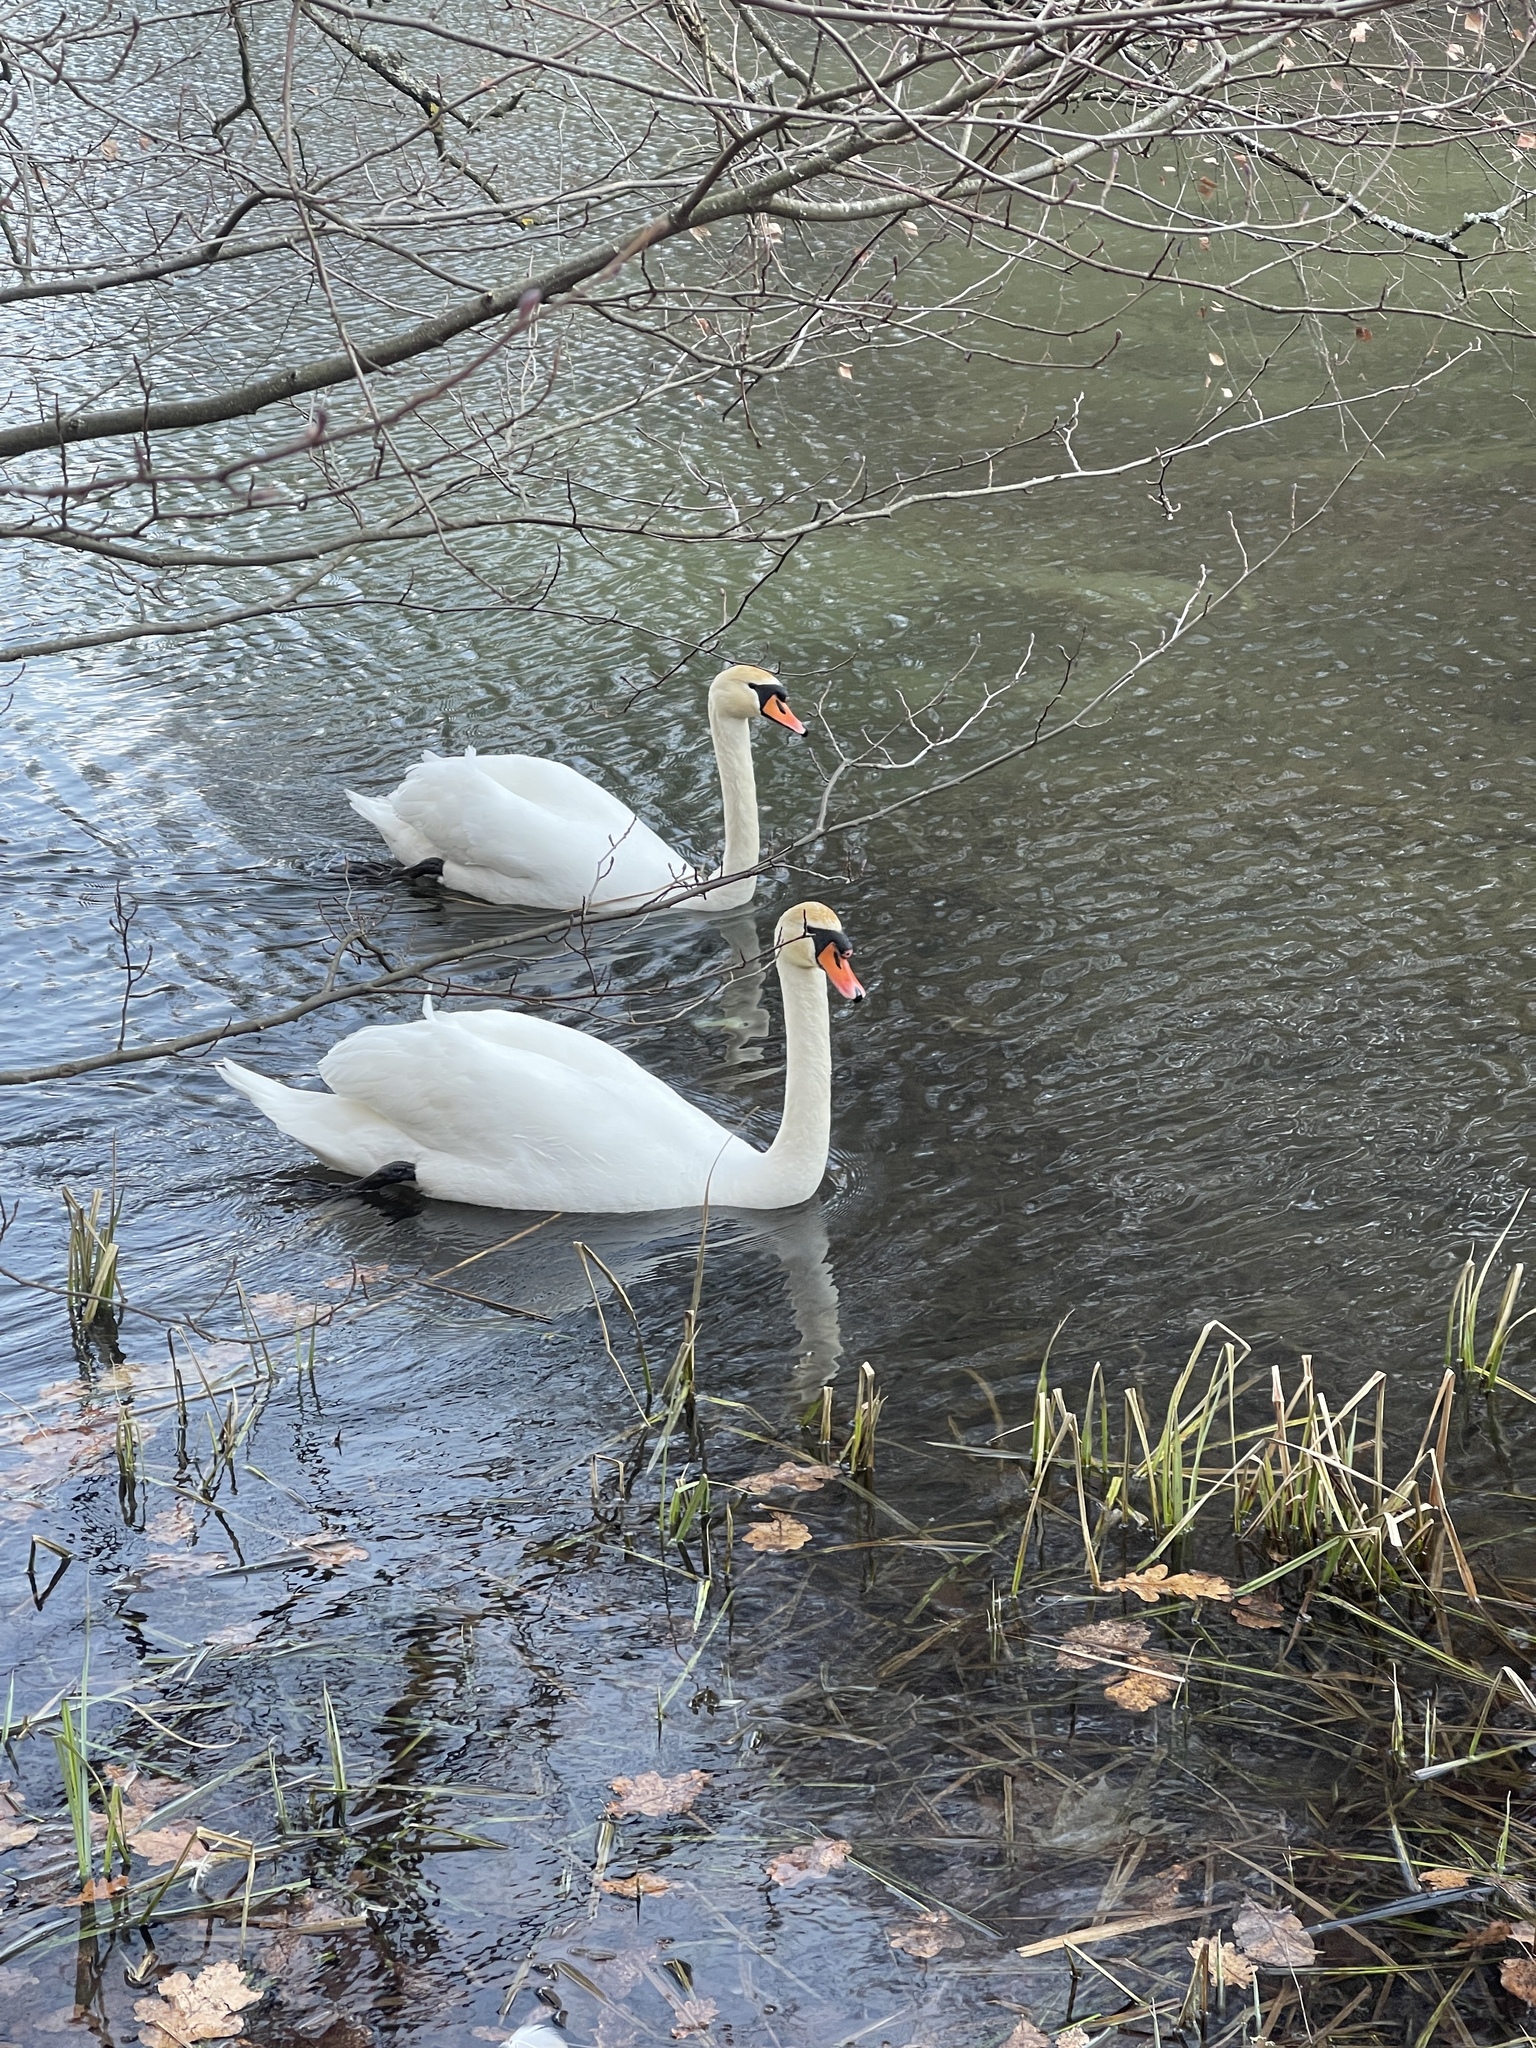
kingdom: Animalia
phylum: Chordata
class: Aves
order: Anseriformes
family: Anatidae
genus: Cygnus
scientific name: Cygnus olor
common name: Mute swan
